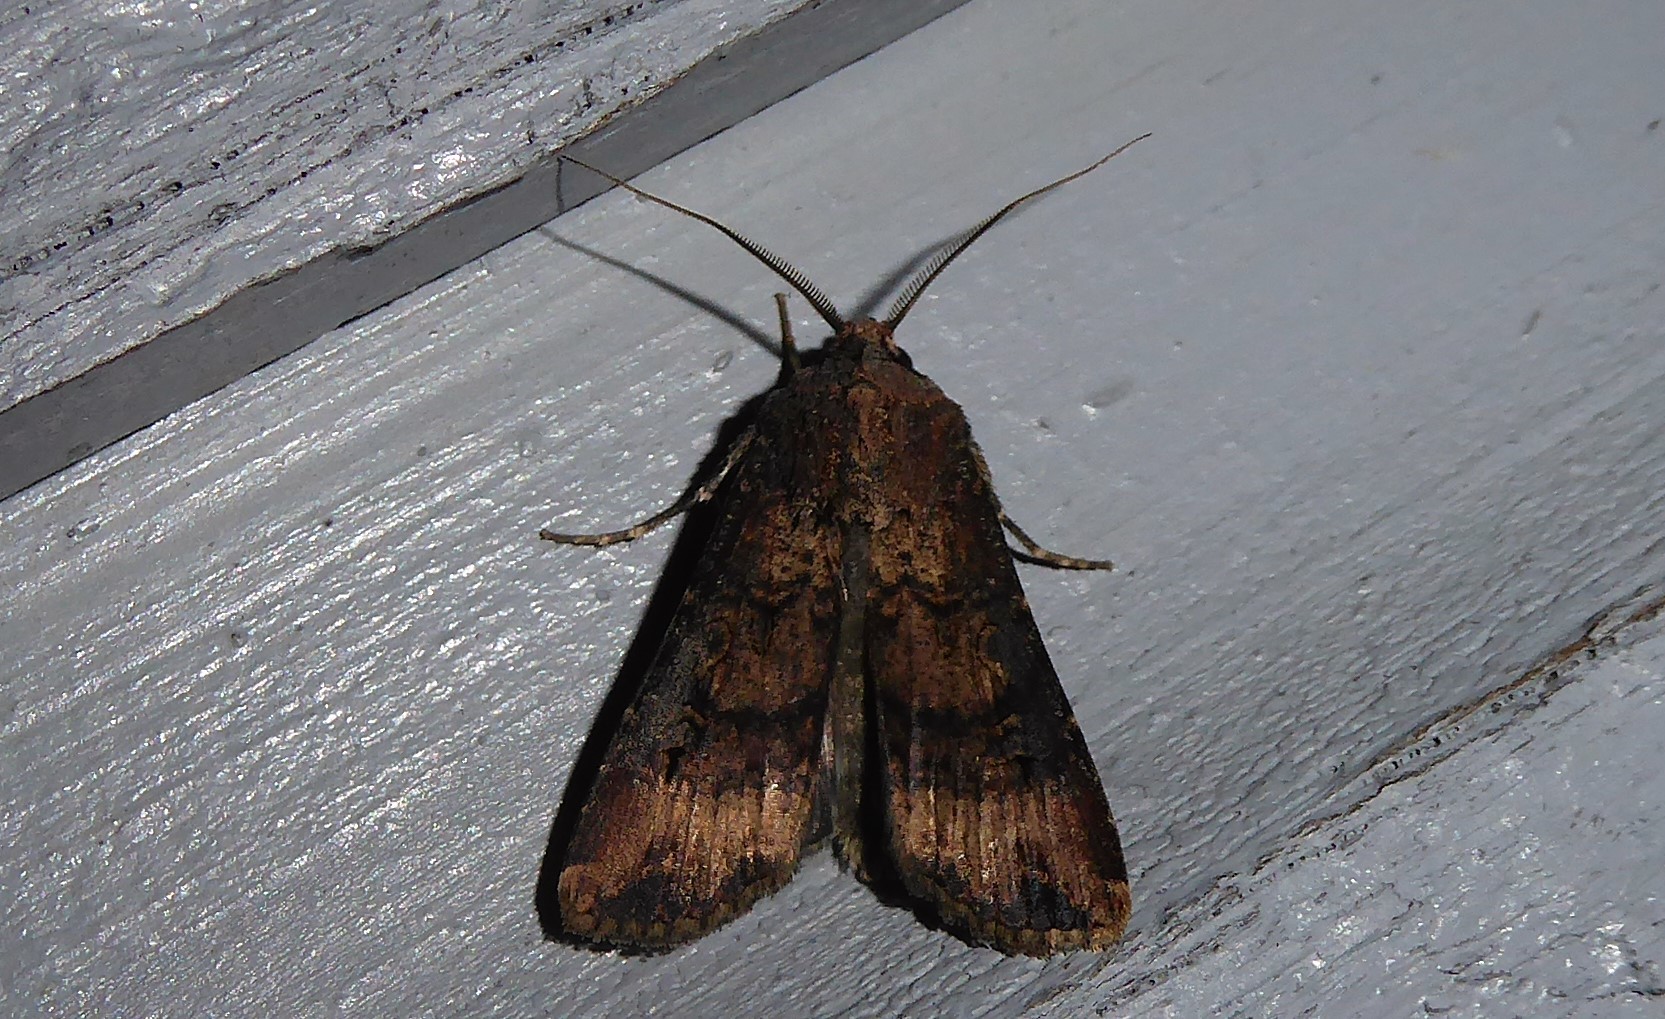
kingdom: Animalia
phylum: Arthropoda
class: Insecta
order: Lepidoptera
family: Noctuidae
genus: Agrotis
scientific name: Agrotis ipsilon
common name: Dark sword-grass
